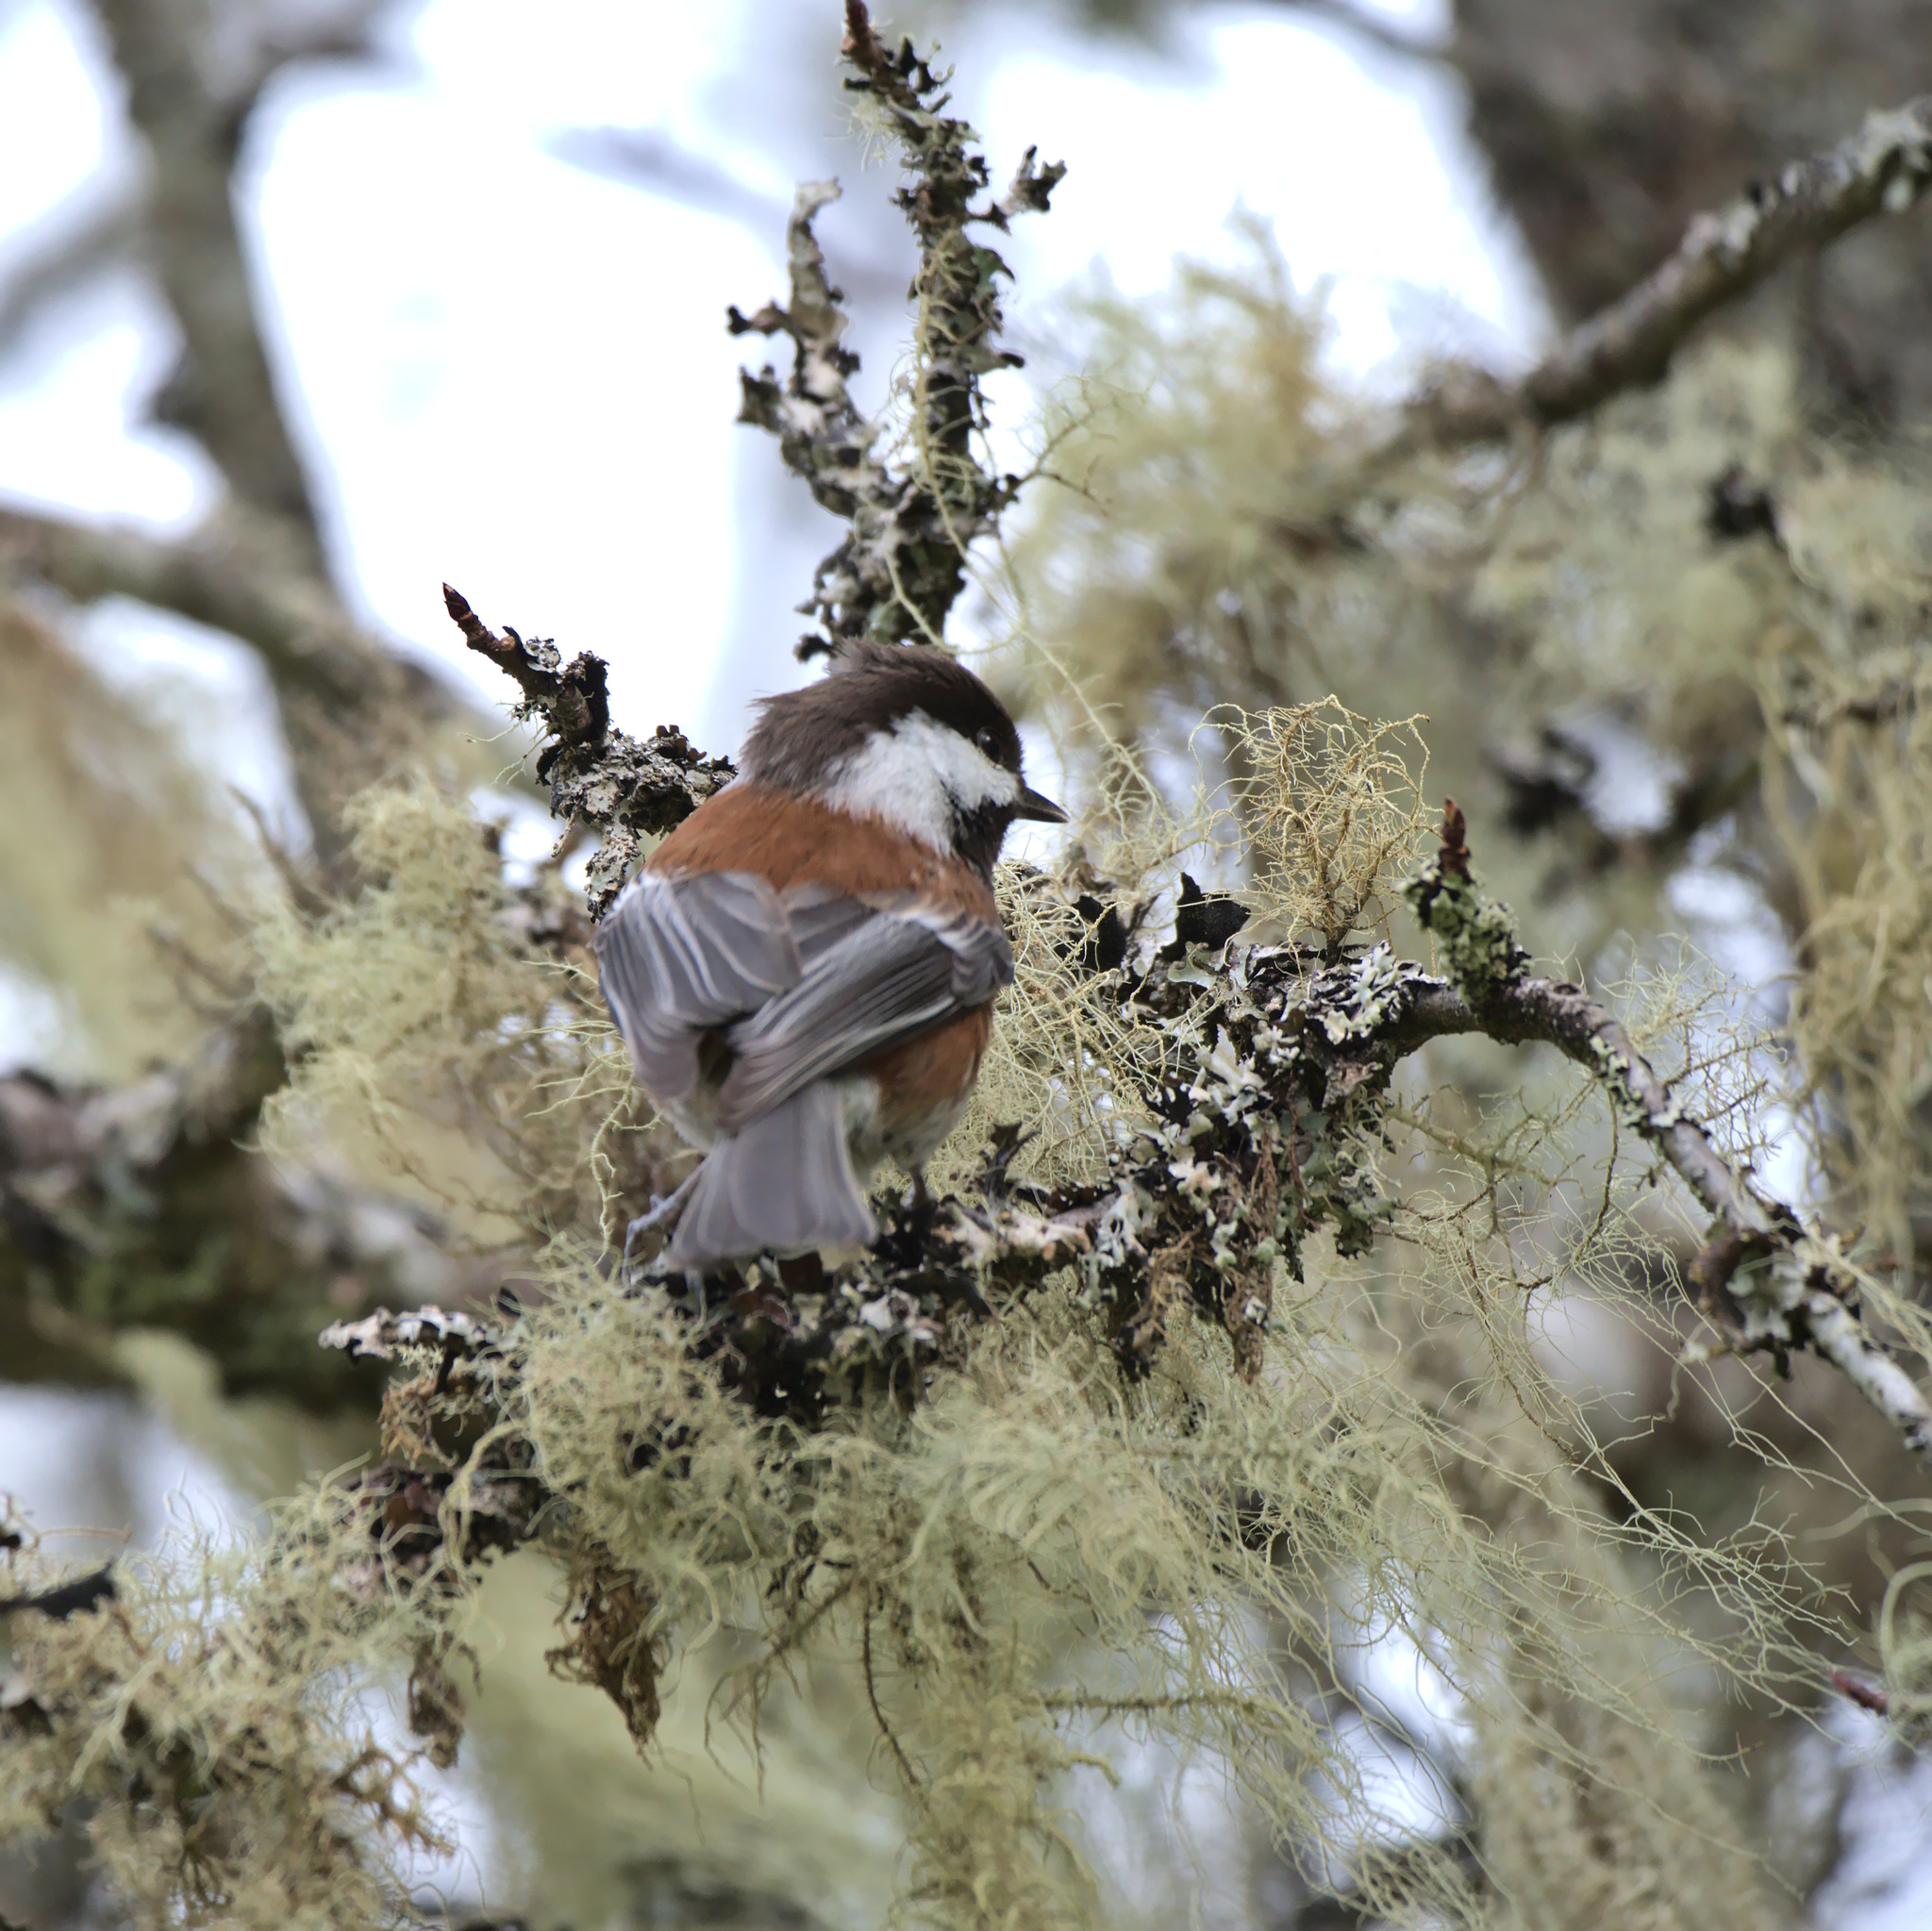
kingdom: Animalia
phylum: Chordata
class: Aves
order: Passeriformes
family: Paridae
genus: Poecile
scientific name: Poecile rufescens
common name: Chestnut-backed chickadee
